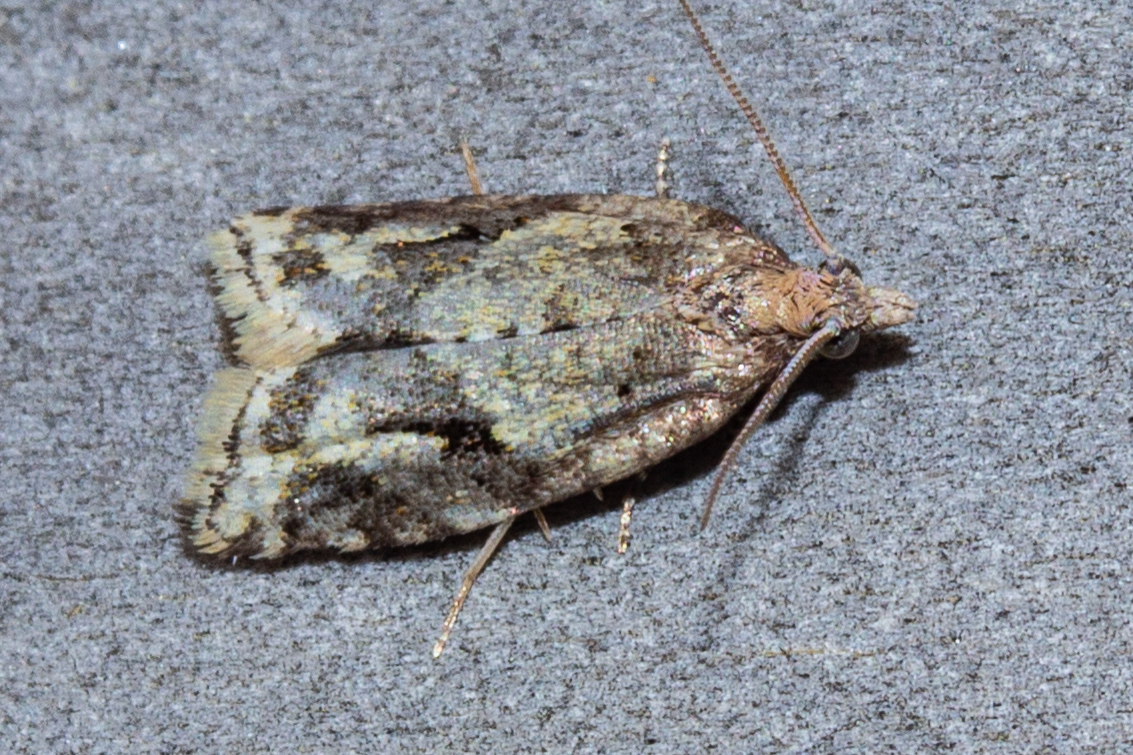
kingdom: Animalia
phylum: Arthropoda
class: Insecta
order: Lepidoptera
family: Tortricidae
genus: Capua
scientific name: Capua semiferana
